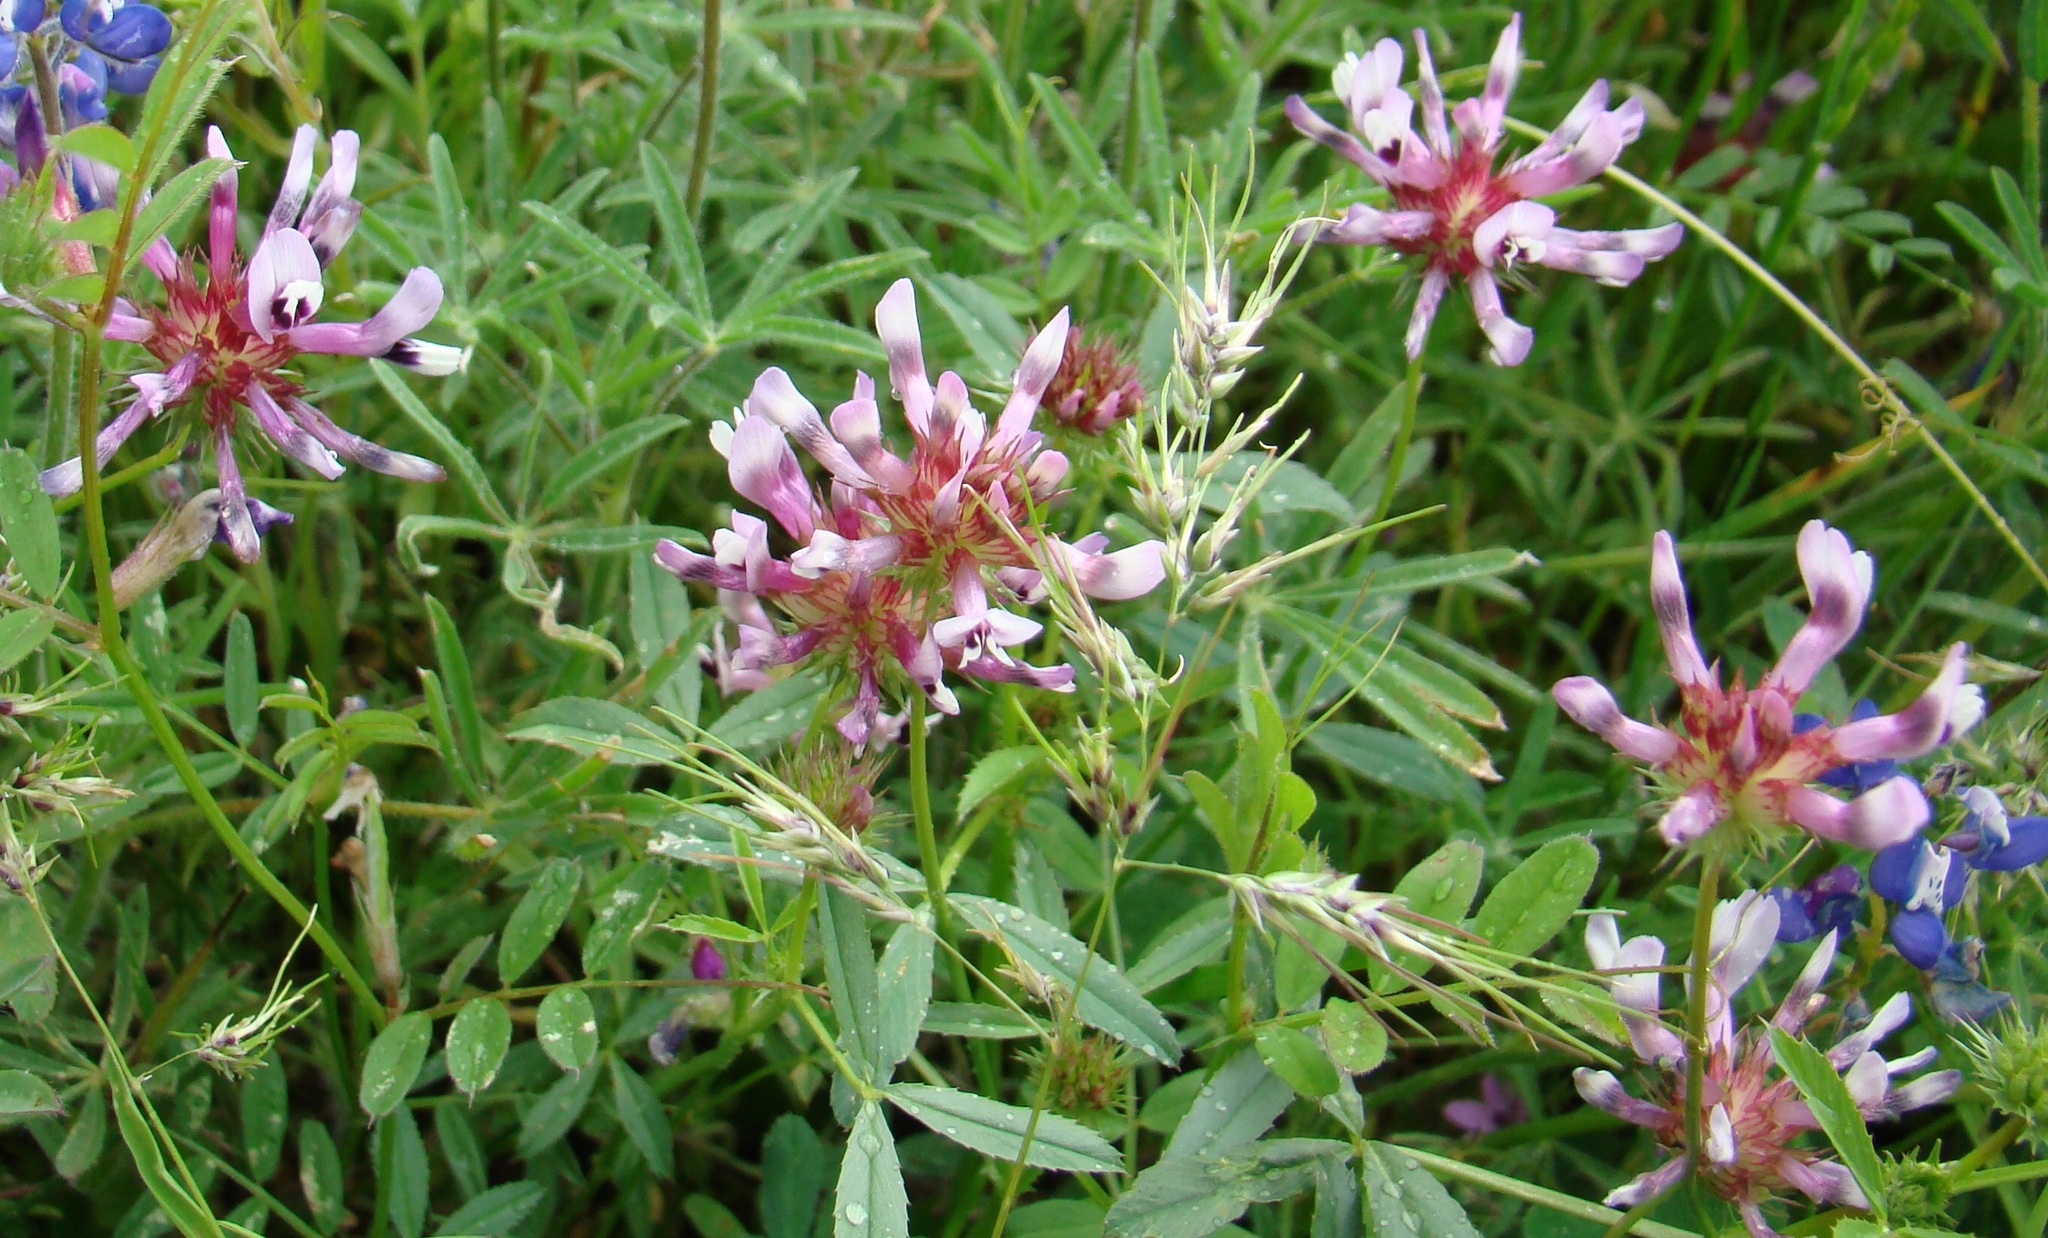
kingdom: Plantae
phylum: Tracheophyta
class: Magnoliopsida
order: Fabales
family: Fabaceae
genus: Trifolium
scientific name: Trifolium willdenovii
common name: Tomcat clover
